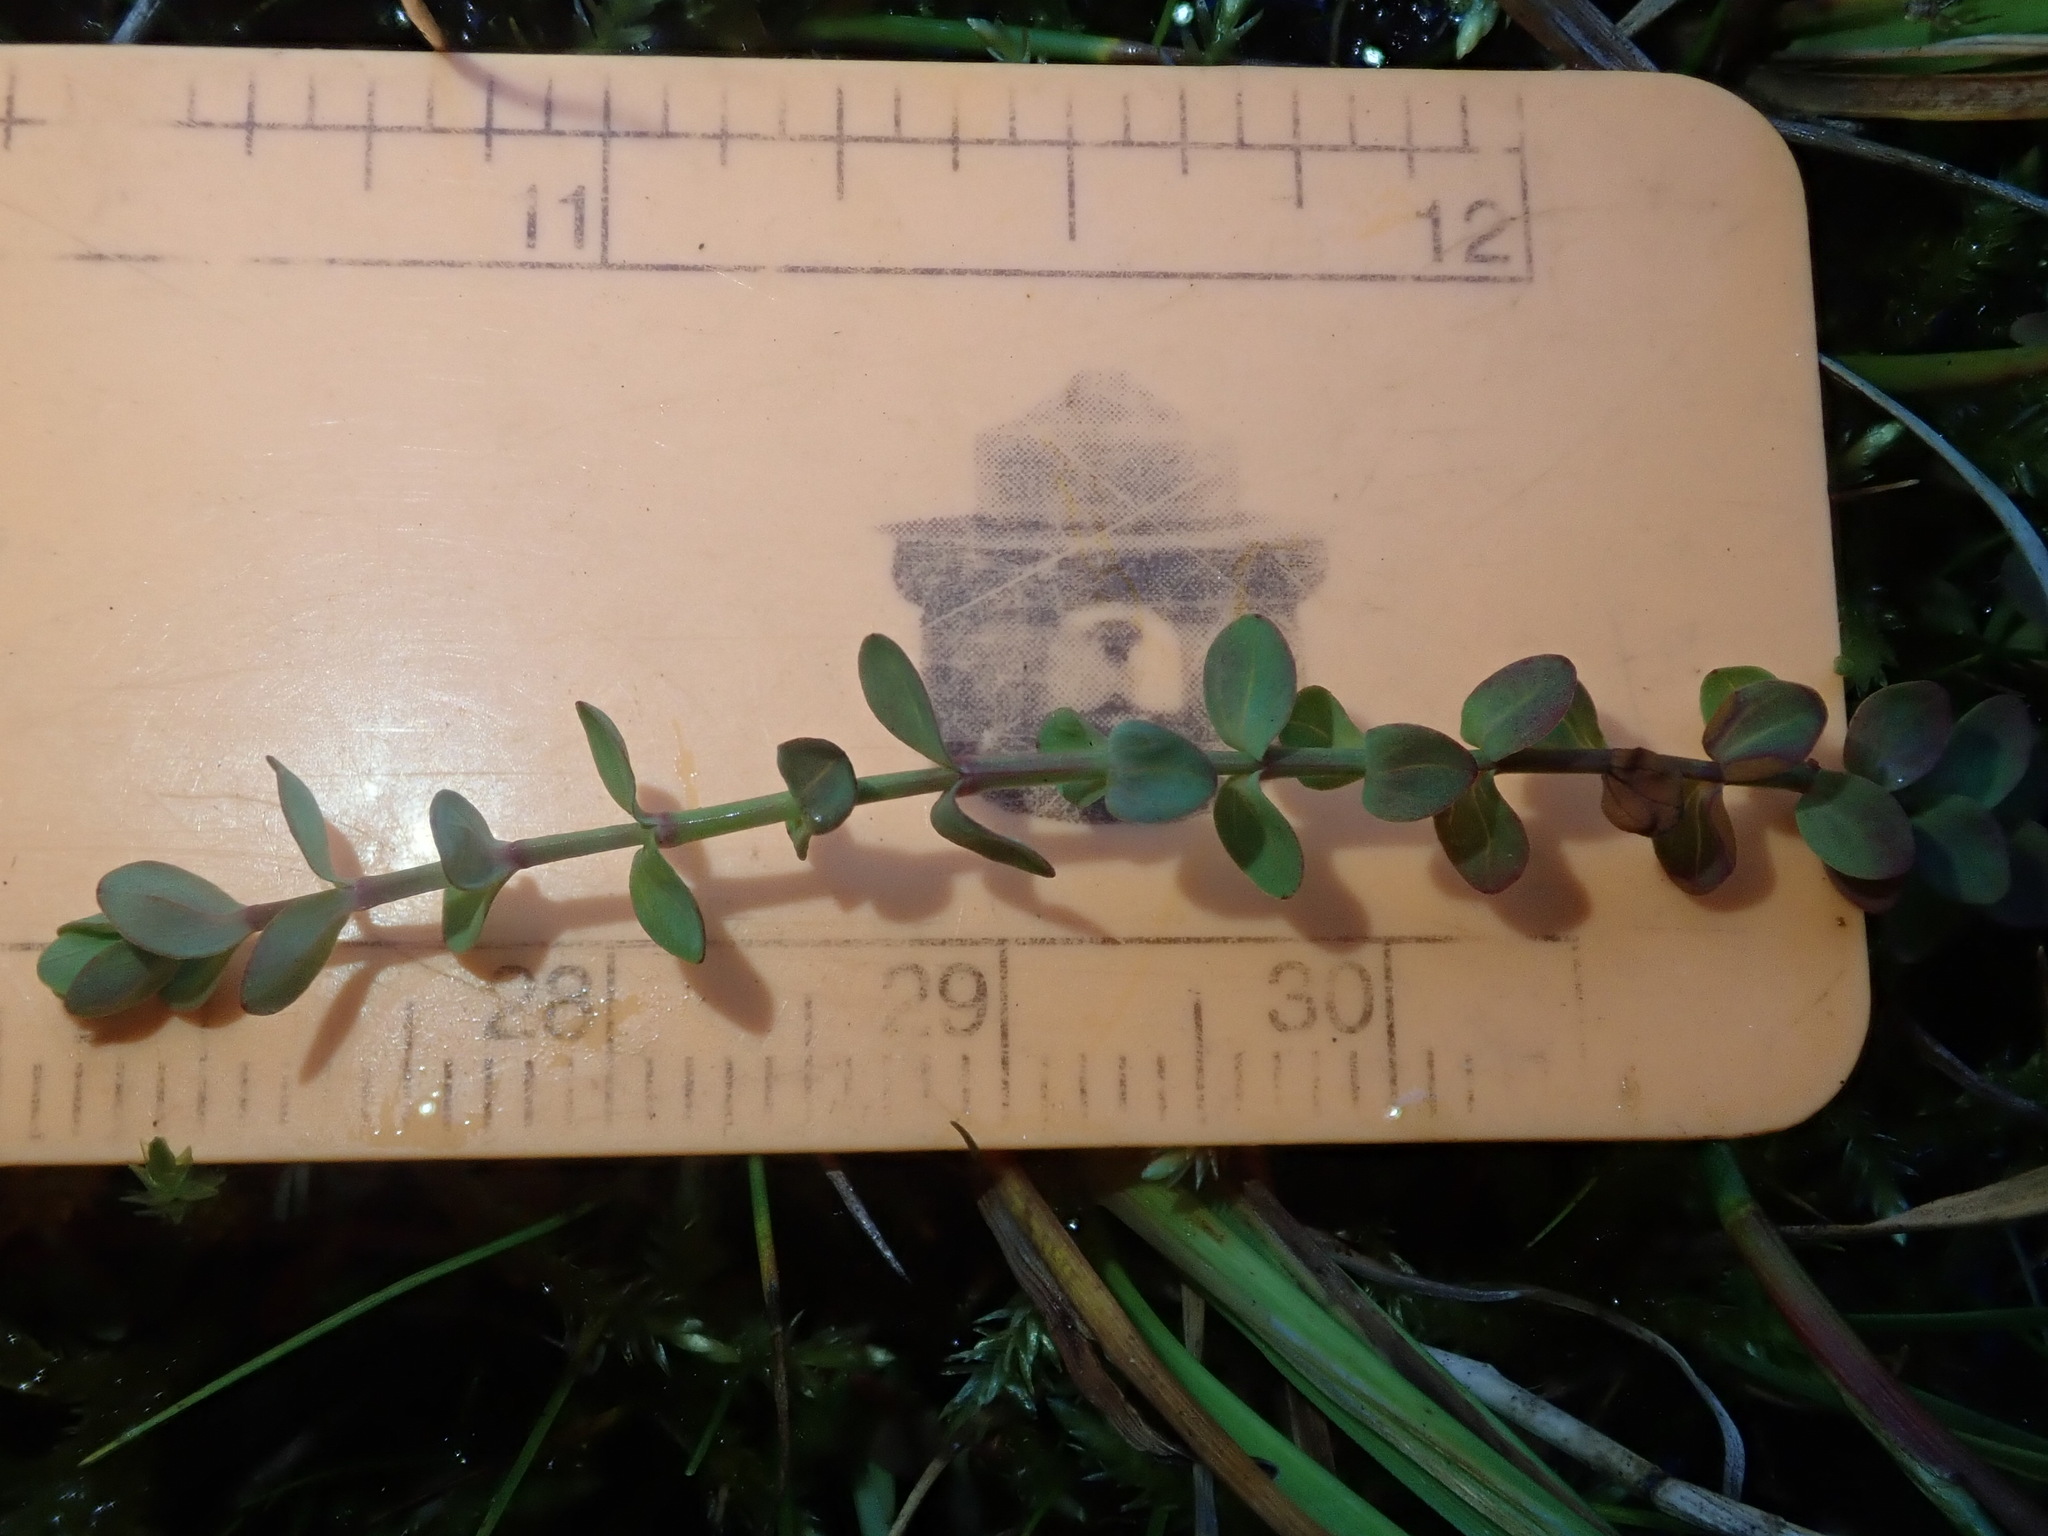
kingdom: Plantae
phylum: Tracheophyta
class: Magnoliopsida
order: Malpighiales
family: Hypericaceae
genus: Hypericum
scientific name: Hypericum anagalloides
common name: Bog st. john's-wort
